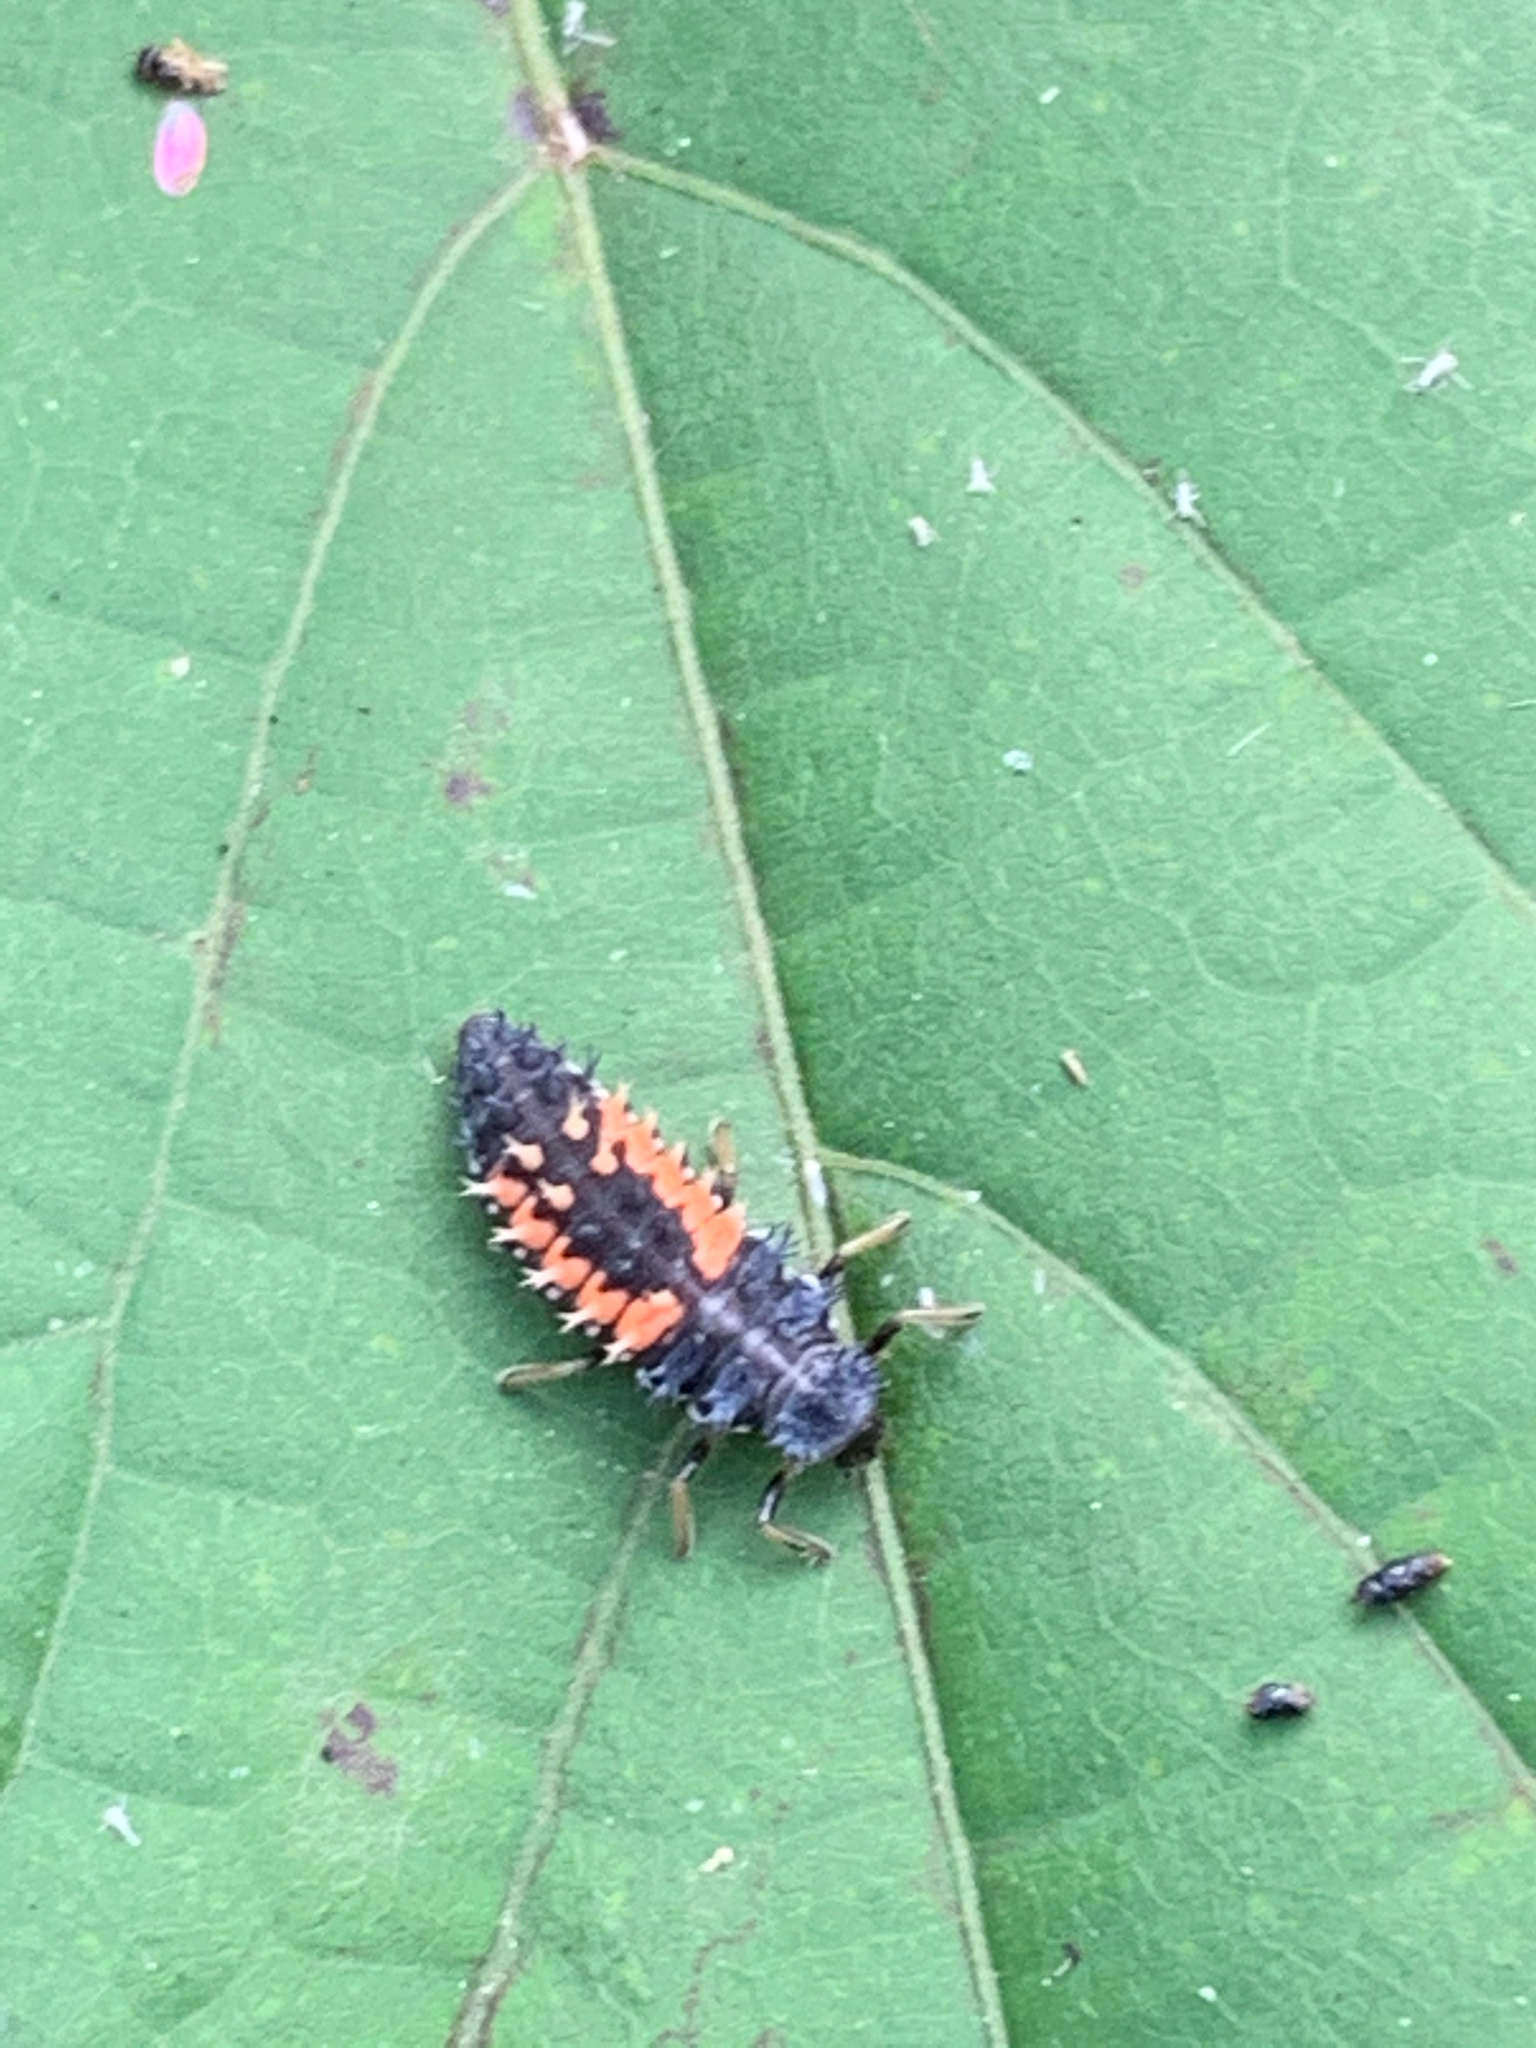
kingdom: Animalia
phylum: Arthropoda
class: Insecta
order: Coleoptera
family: Coccinellidae
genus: Harmonia
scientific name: Harmonia axyridis
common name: Harlequin ladybird
